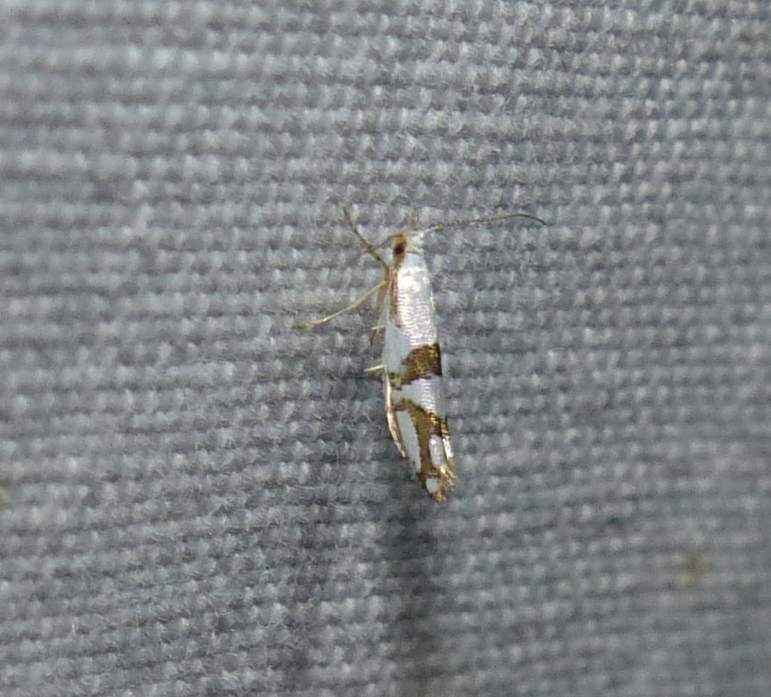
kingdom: Animalia
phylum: Arthropoda
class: Insecta
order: Lepidoptera
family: Argyresthiidae
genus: Argyresthia
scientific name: Argyresthia oreasella
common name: Cherry shoot borer moth
